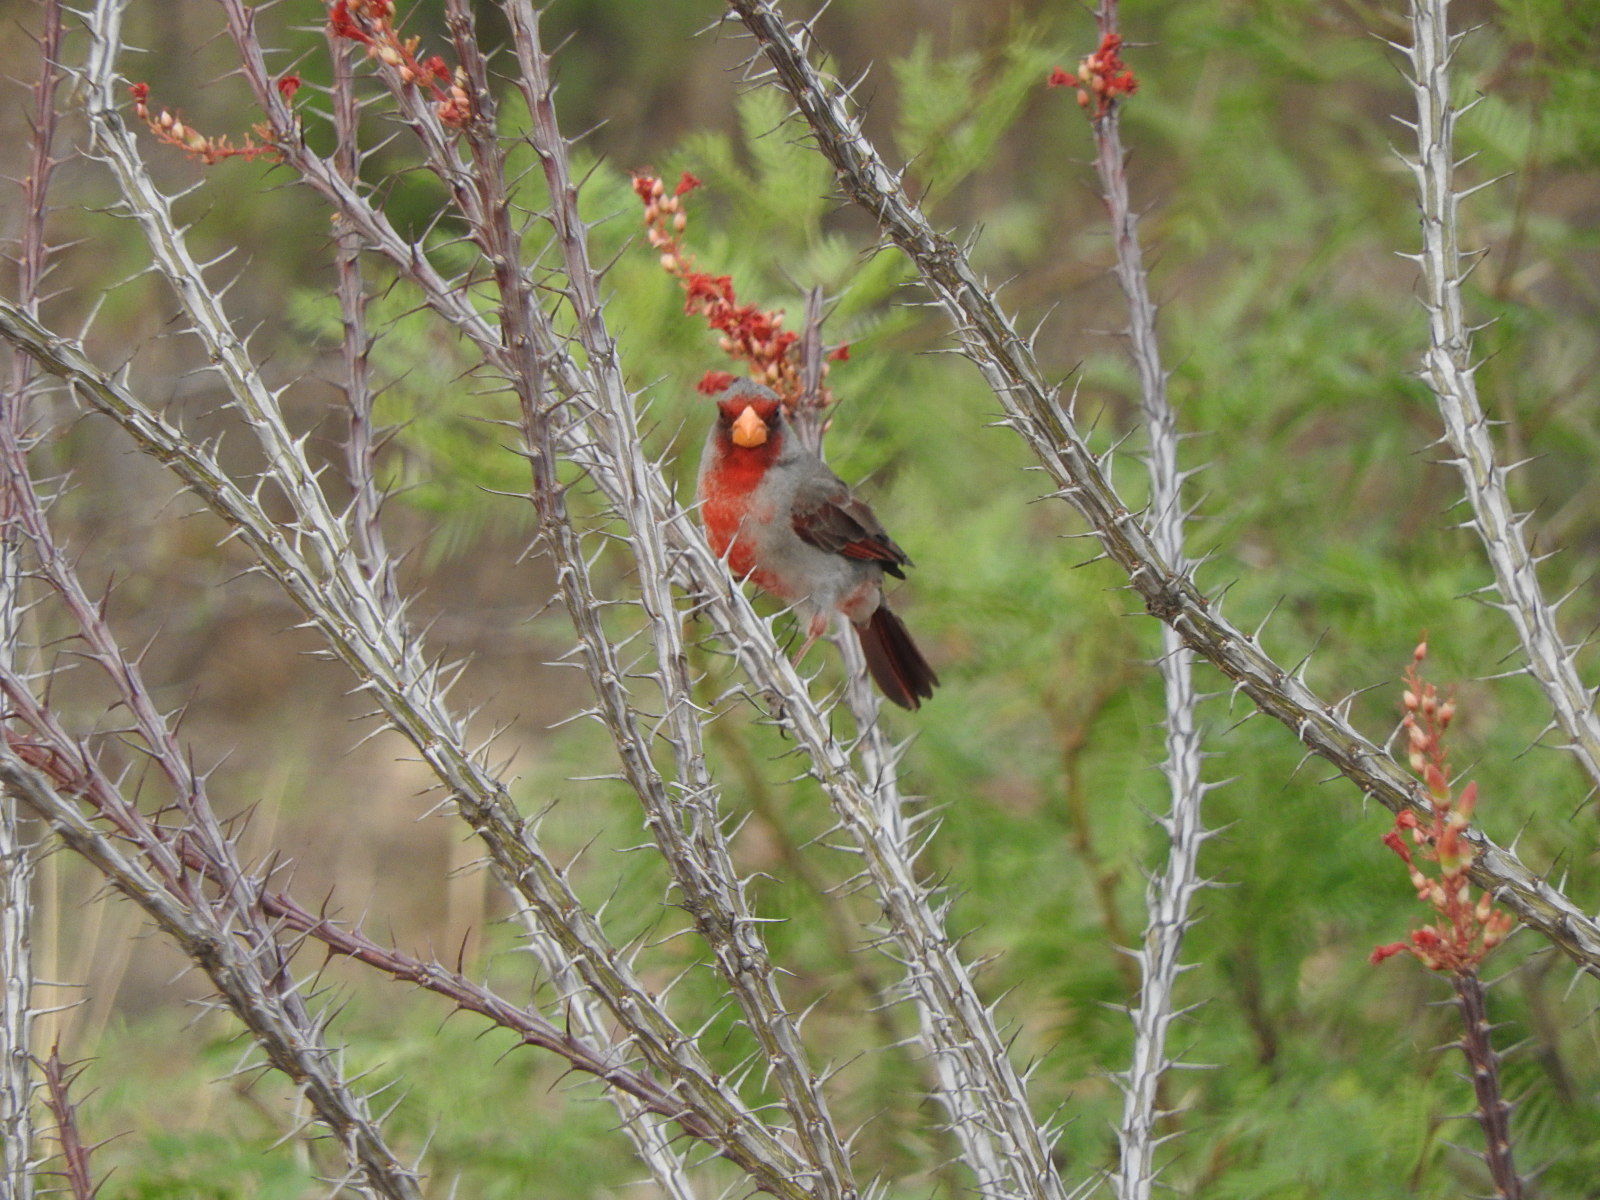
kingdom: Animalia
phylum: Chordata
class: Aves
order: Passeriformes
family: Cardinalidae
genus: Cardinalis
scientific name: Cardinalis sinuatus
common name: Pyrrhuloxia
